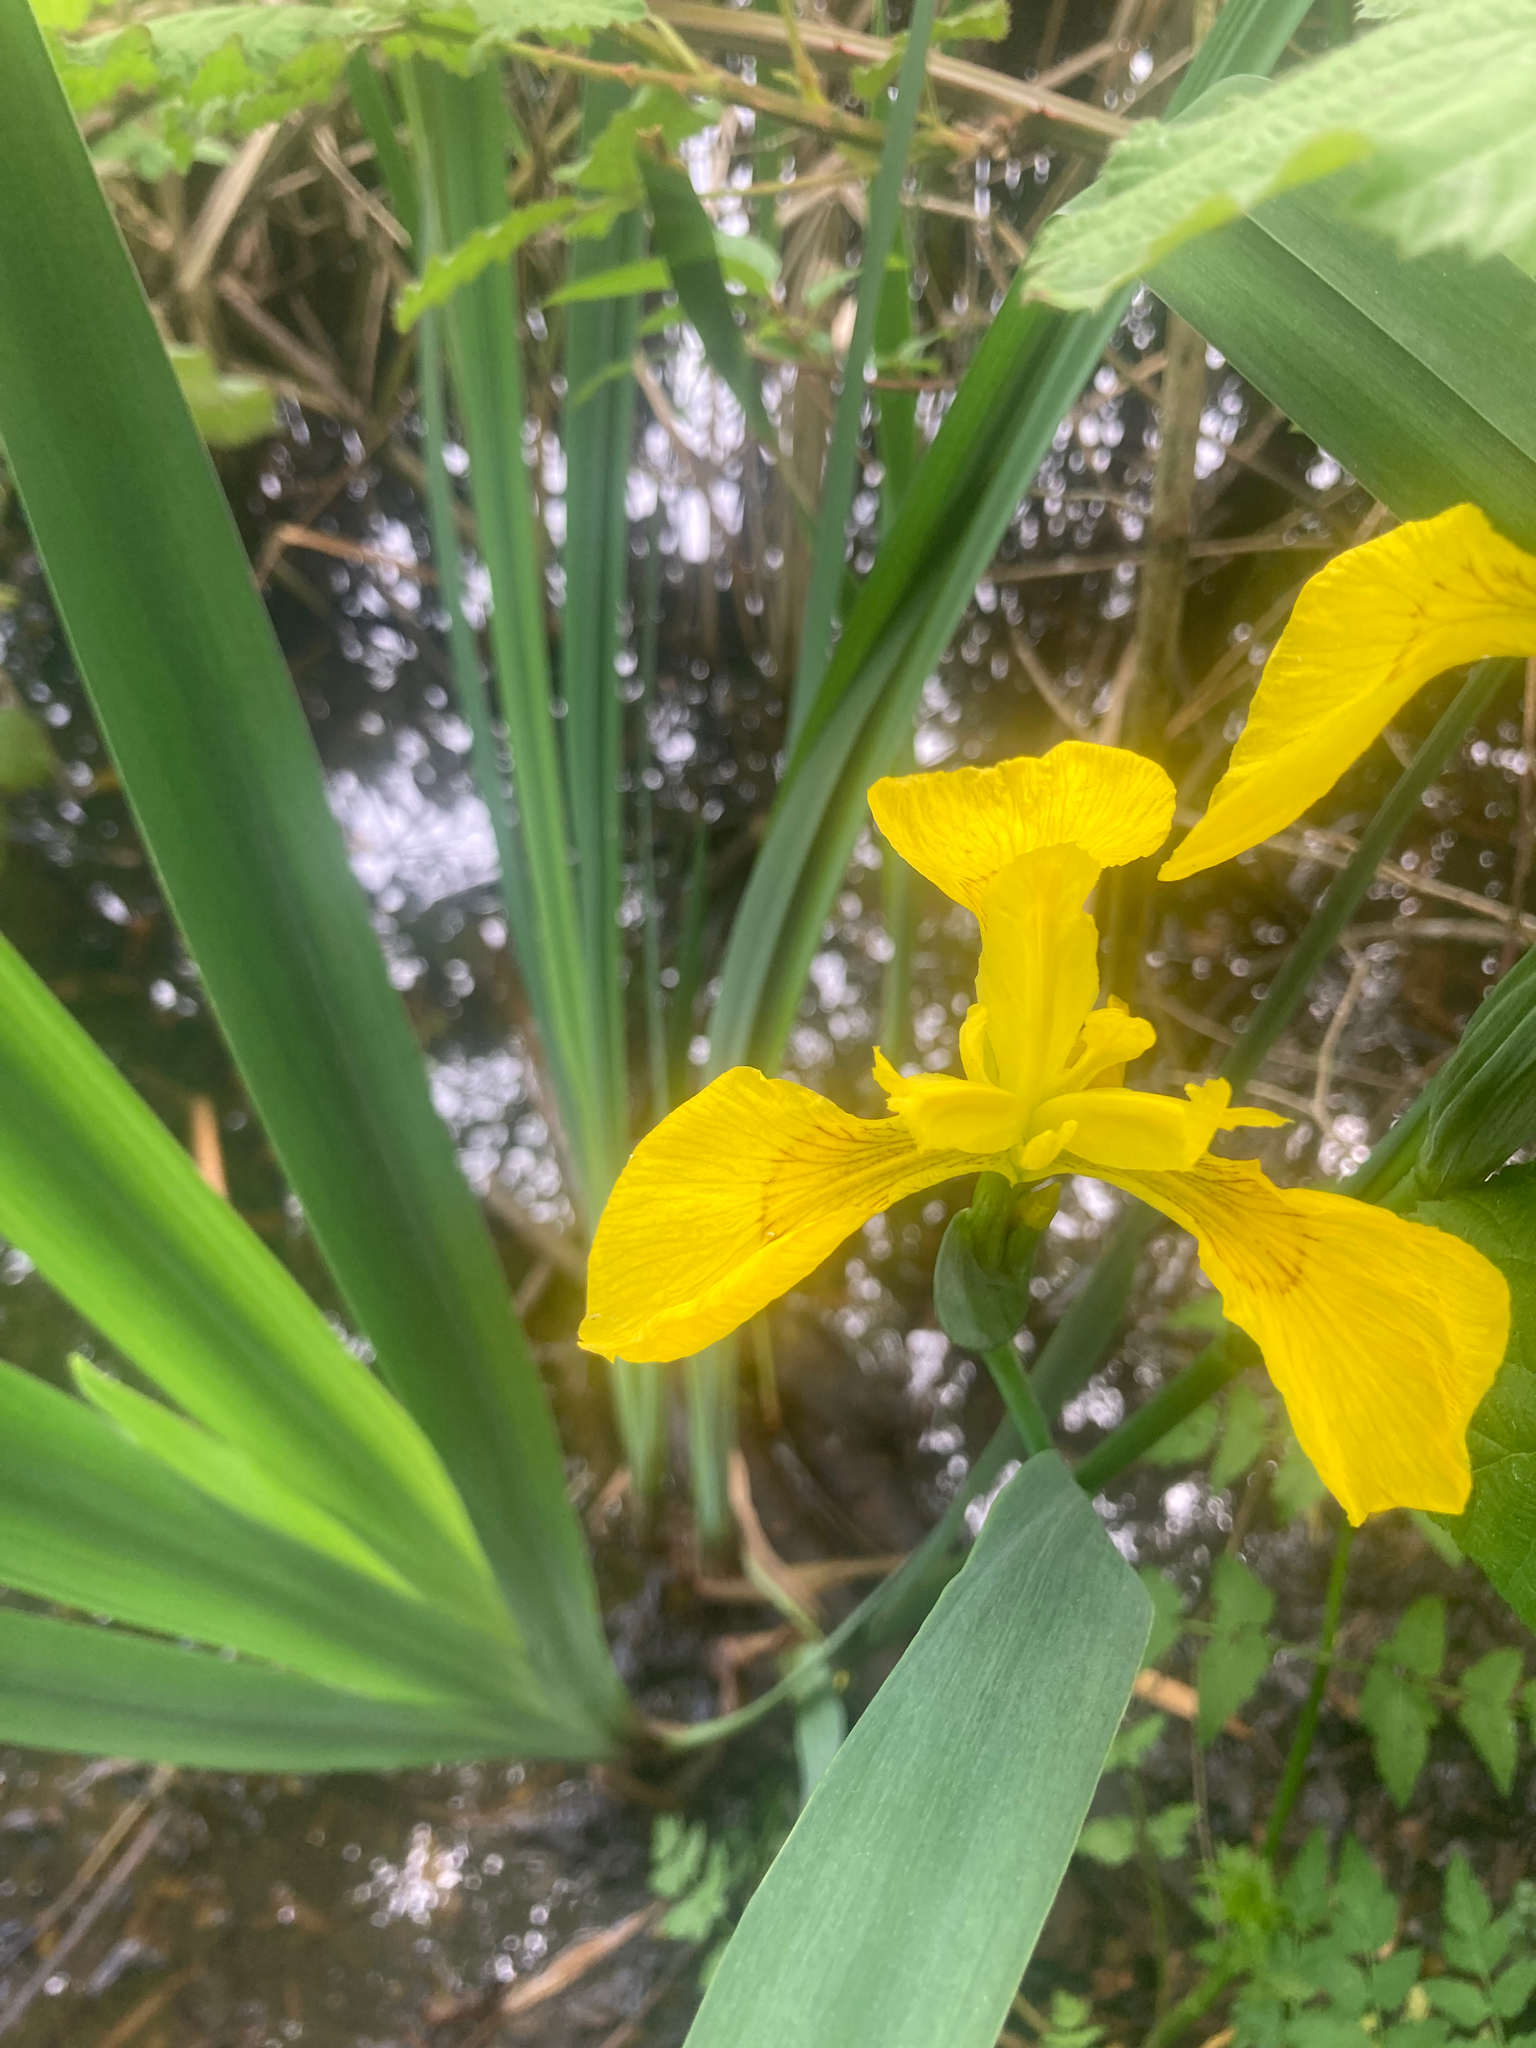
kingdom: Plantae
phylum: Tracheophyta
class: Liliopsida
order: Asparagales
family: Iridaceae
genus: Iris
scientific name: Iris pseudacorus
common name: Yellow flag
